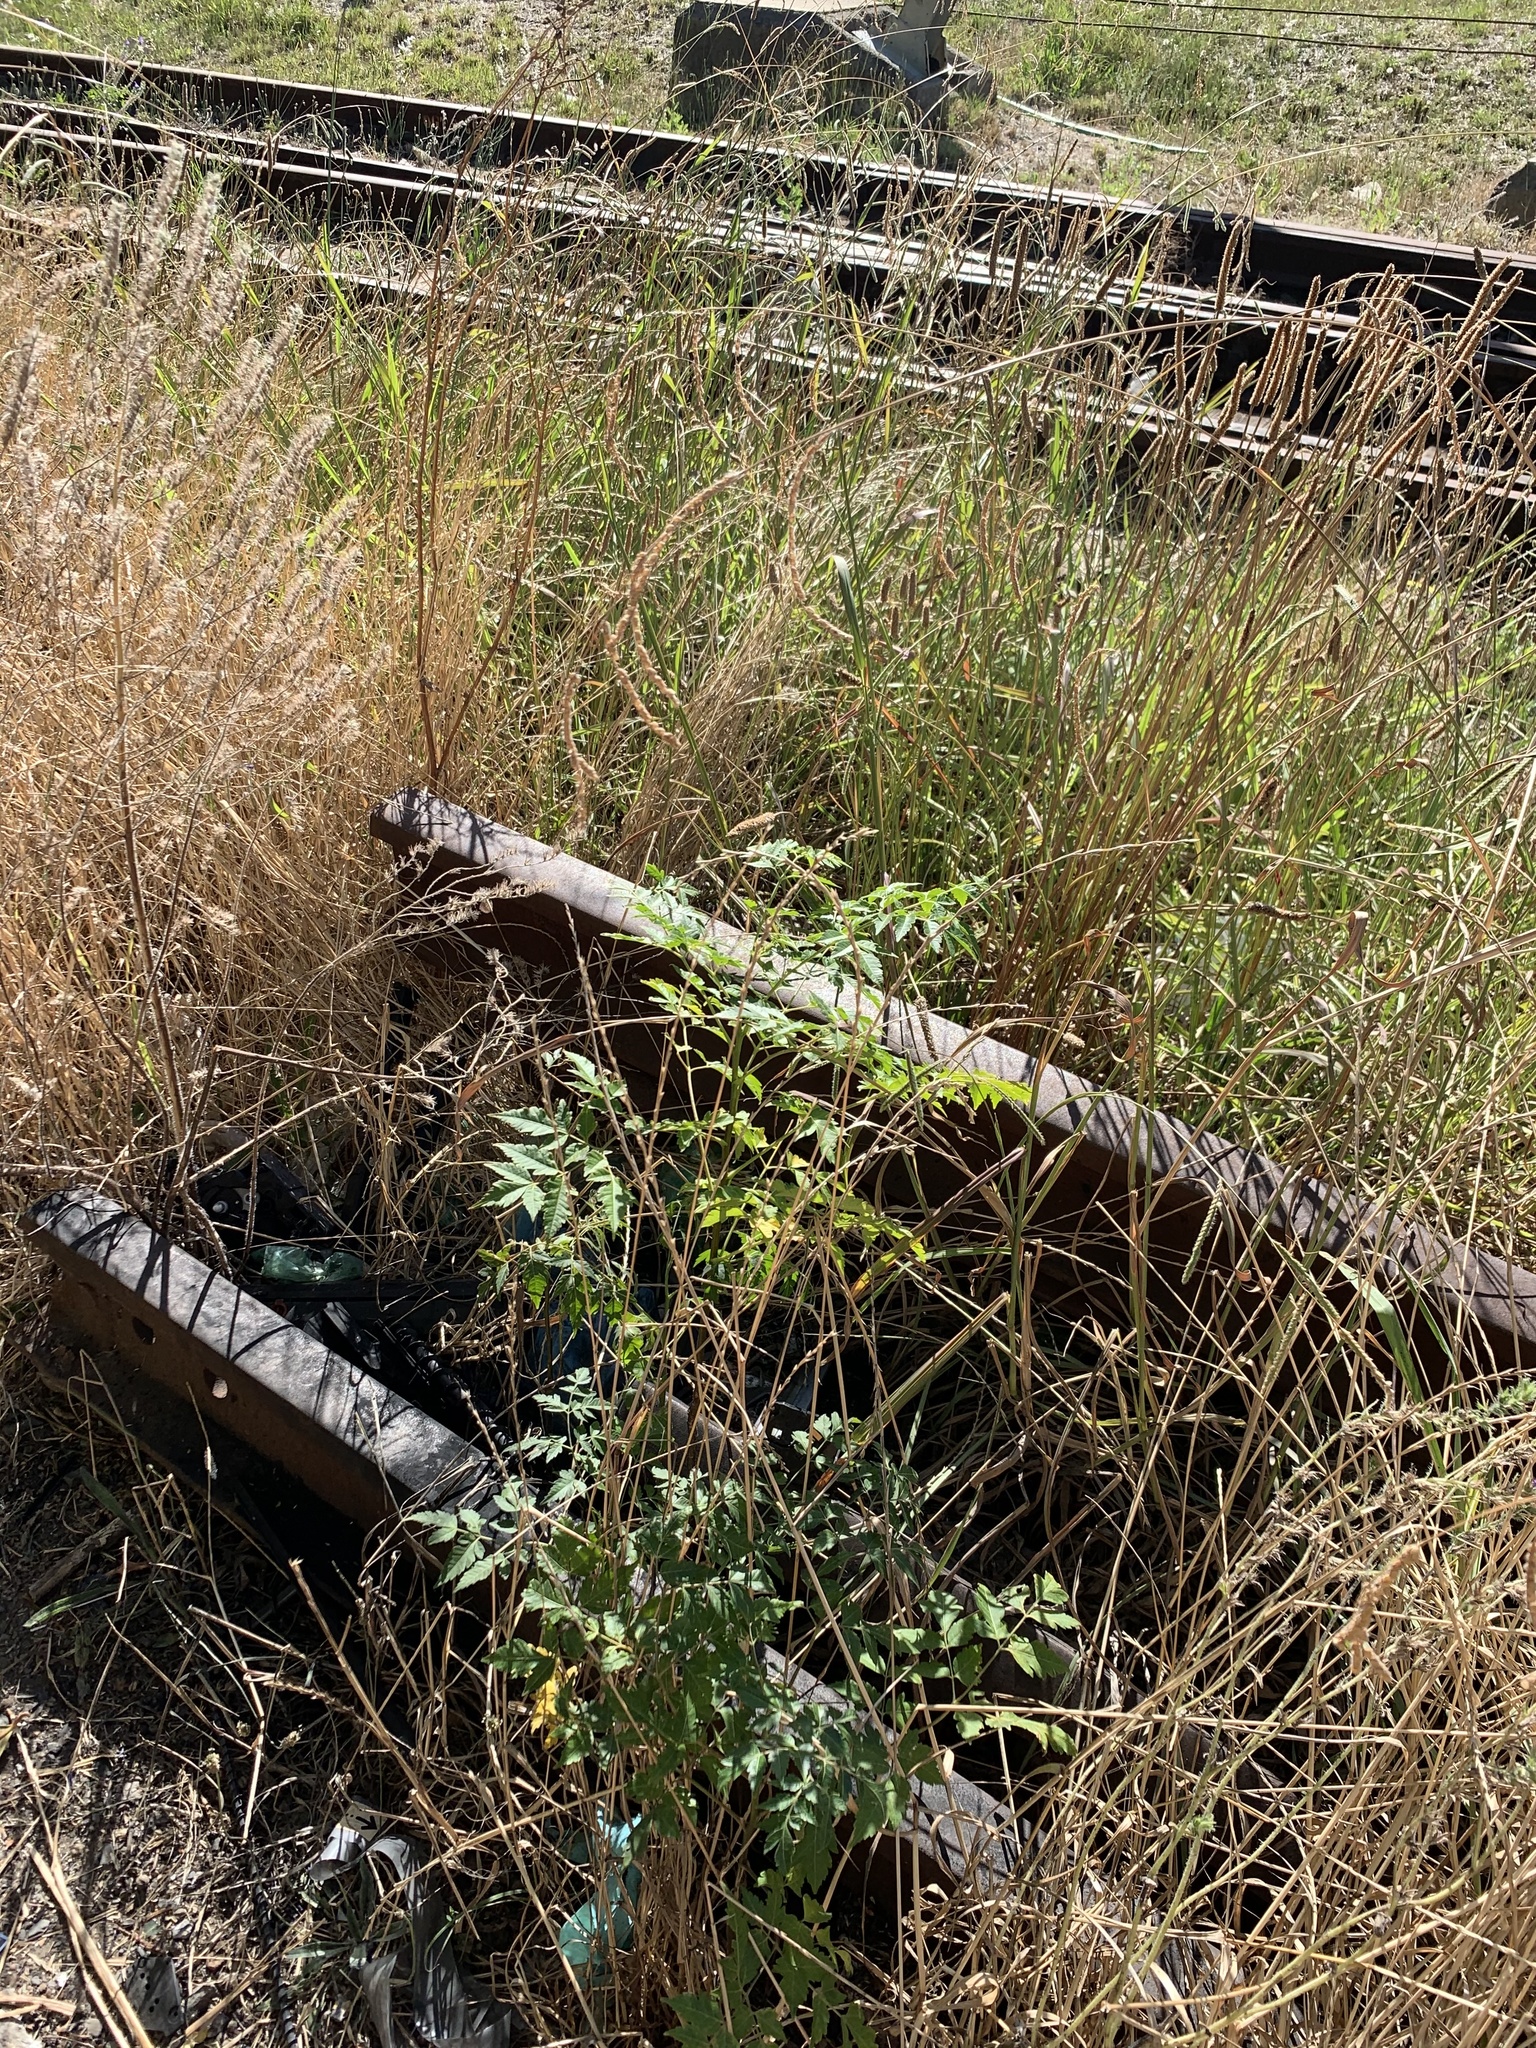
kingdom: Plantae
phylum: Tracheophyta
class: Magnoliopsida
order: Sapindales
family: Meliaceae
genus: Melia
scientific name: Melia azedarach
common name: Chinaberrytree
